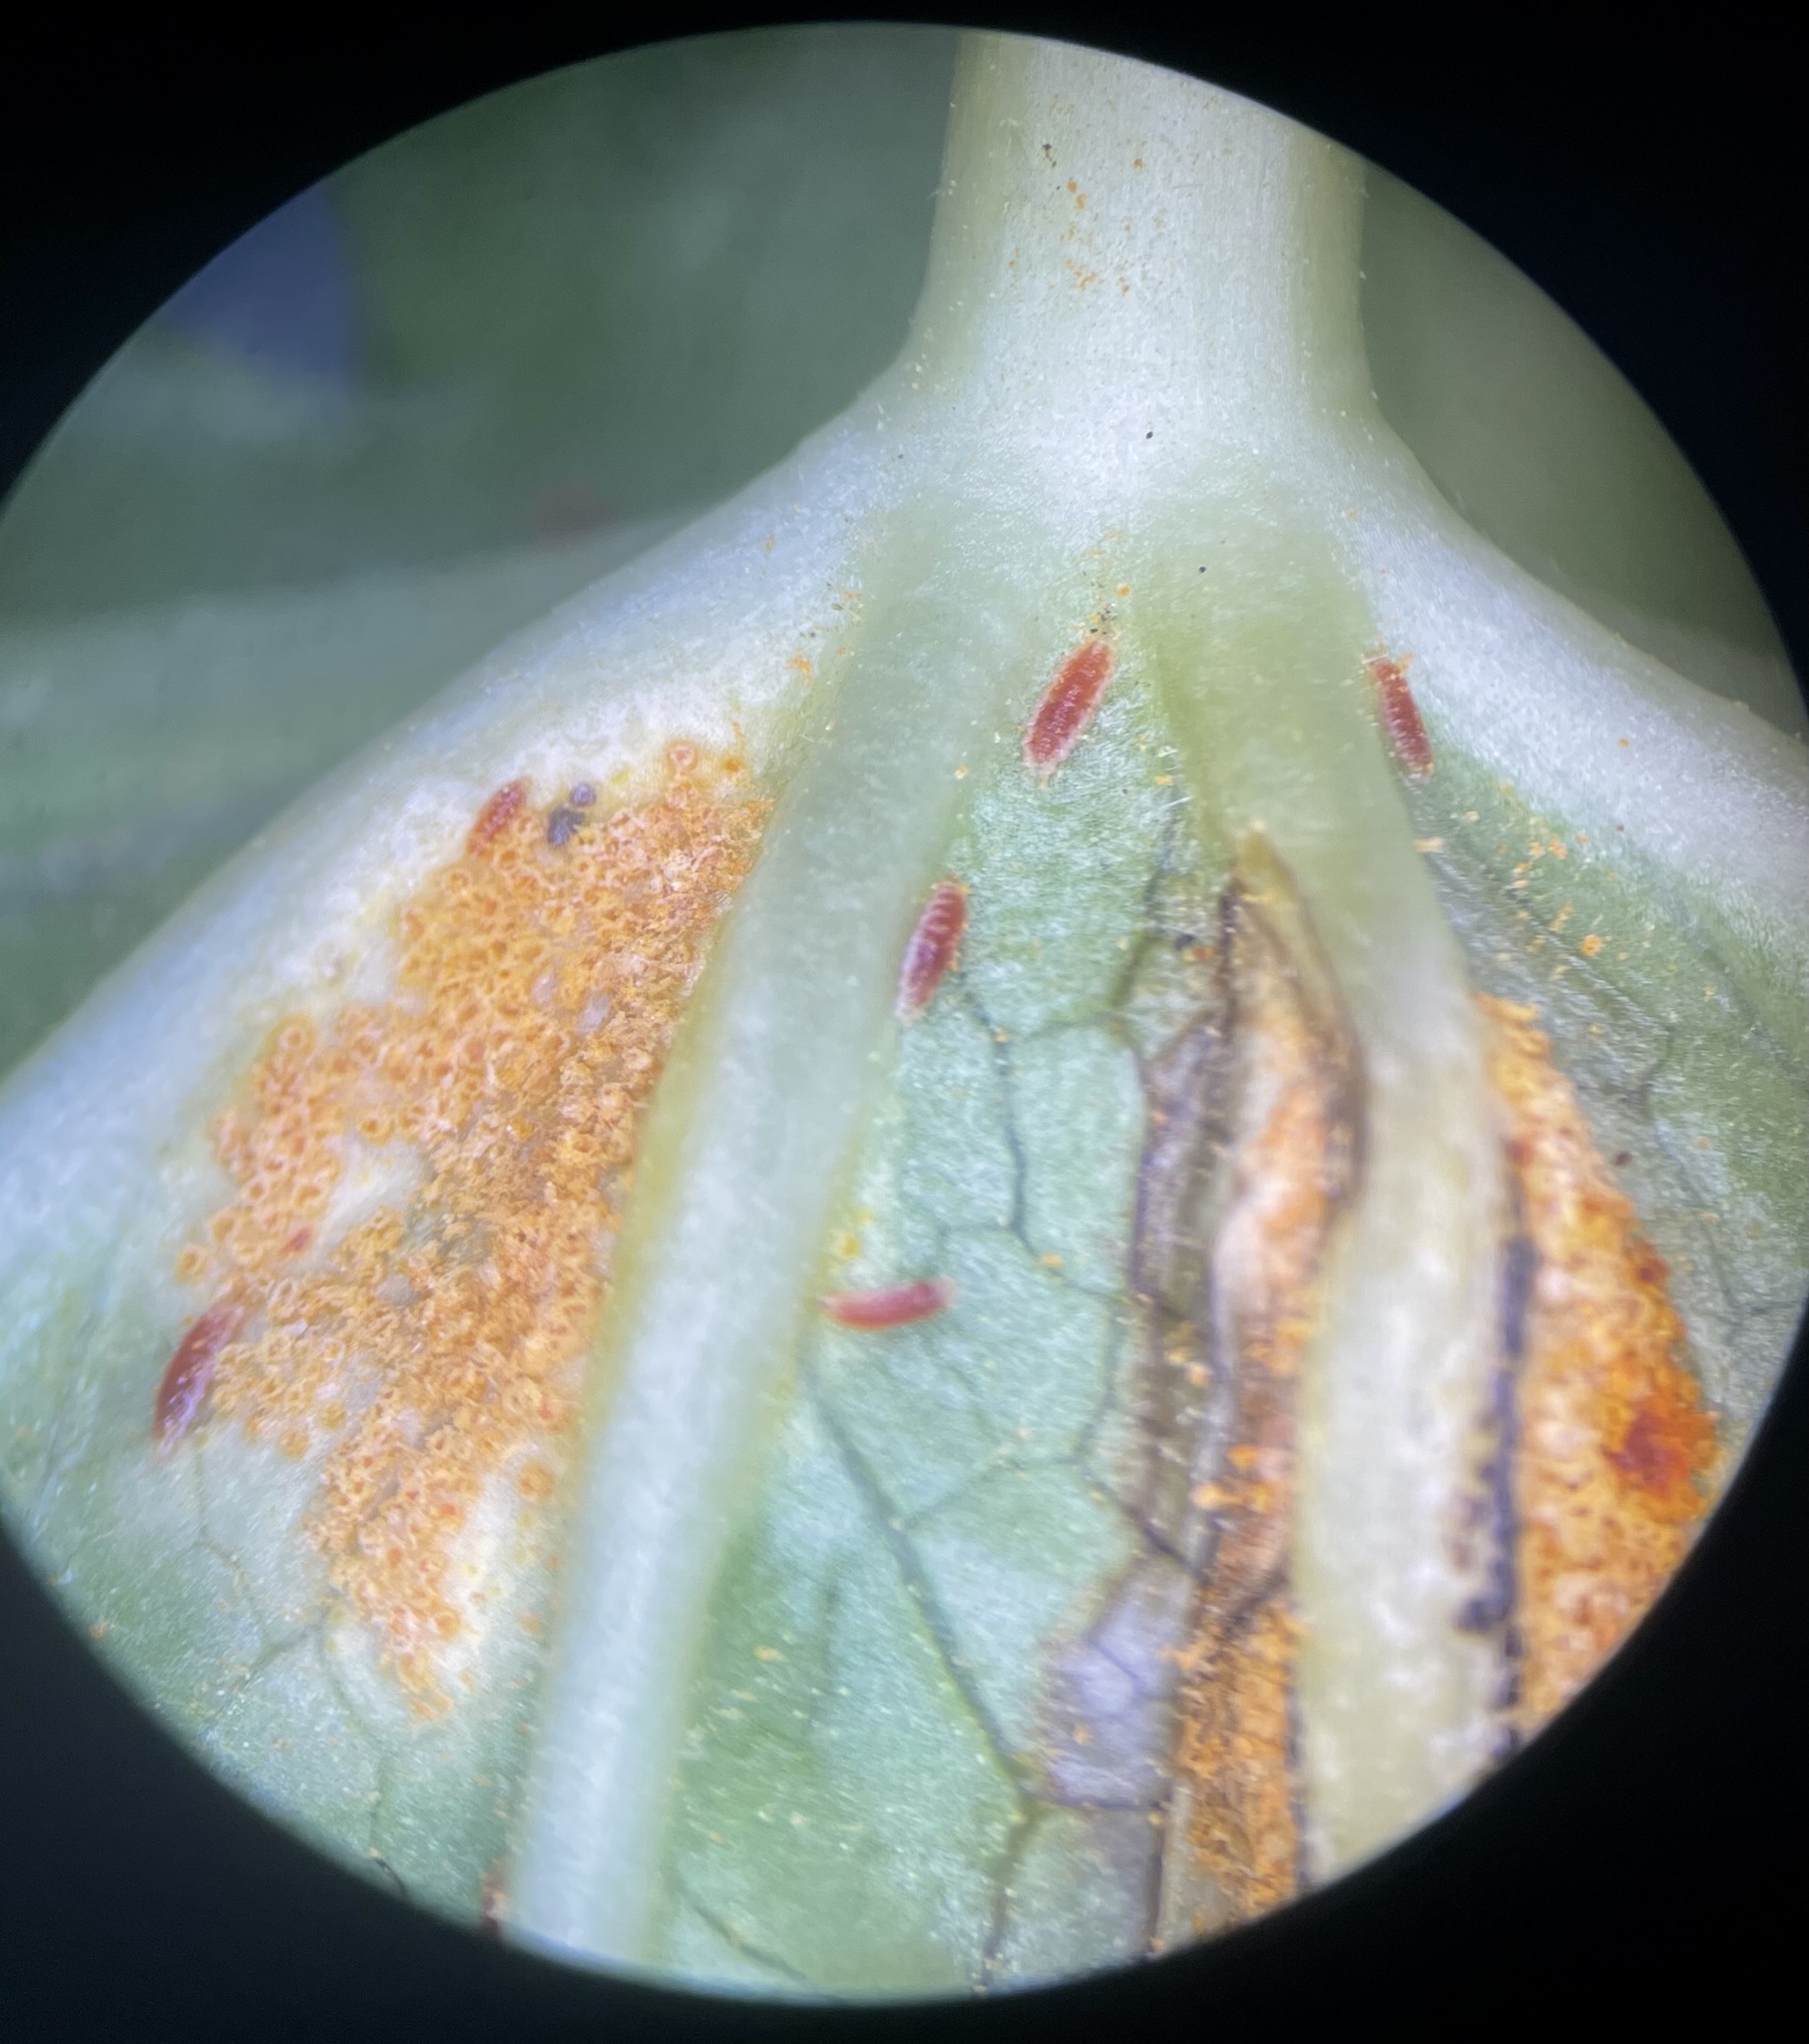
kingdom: Fungi
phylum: Basidiomycota
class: Pucciniomycetes
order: Pucciniales
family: Pucciniaceae
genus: Puccinia
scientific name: Puccinia podophylli
